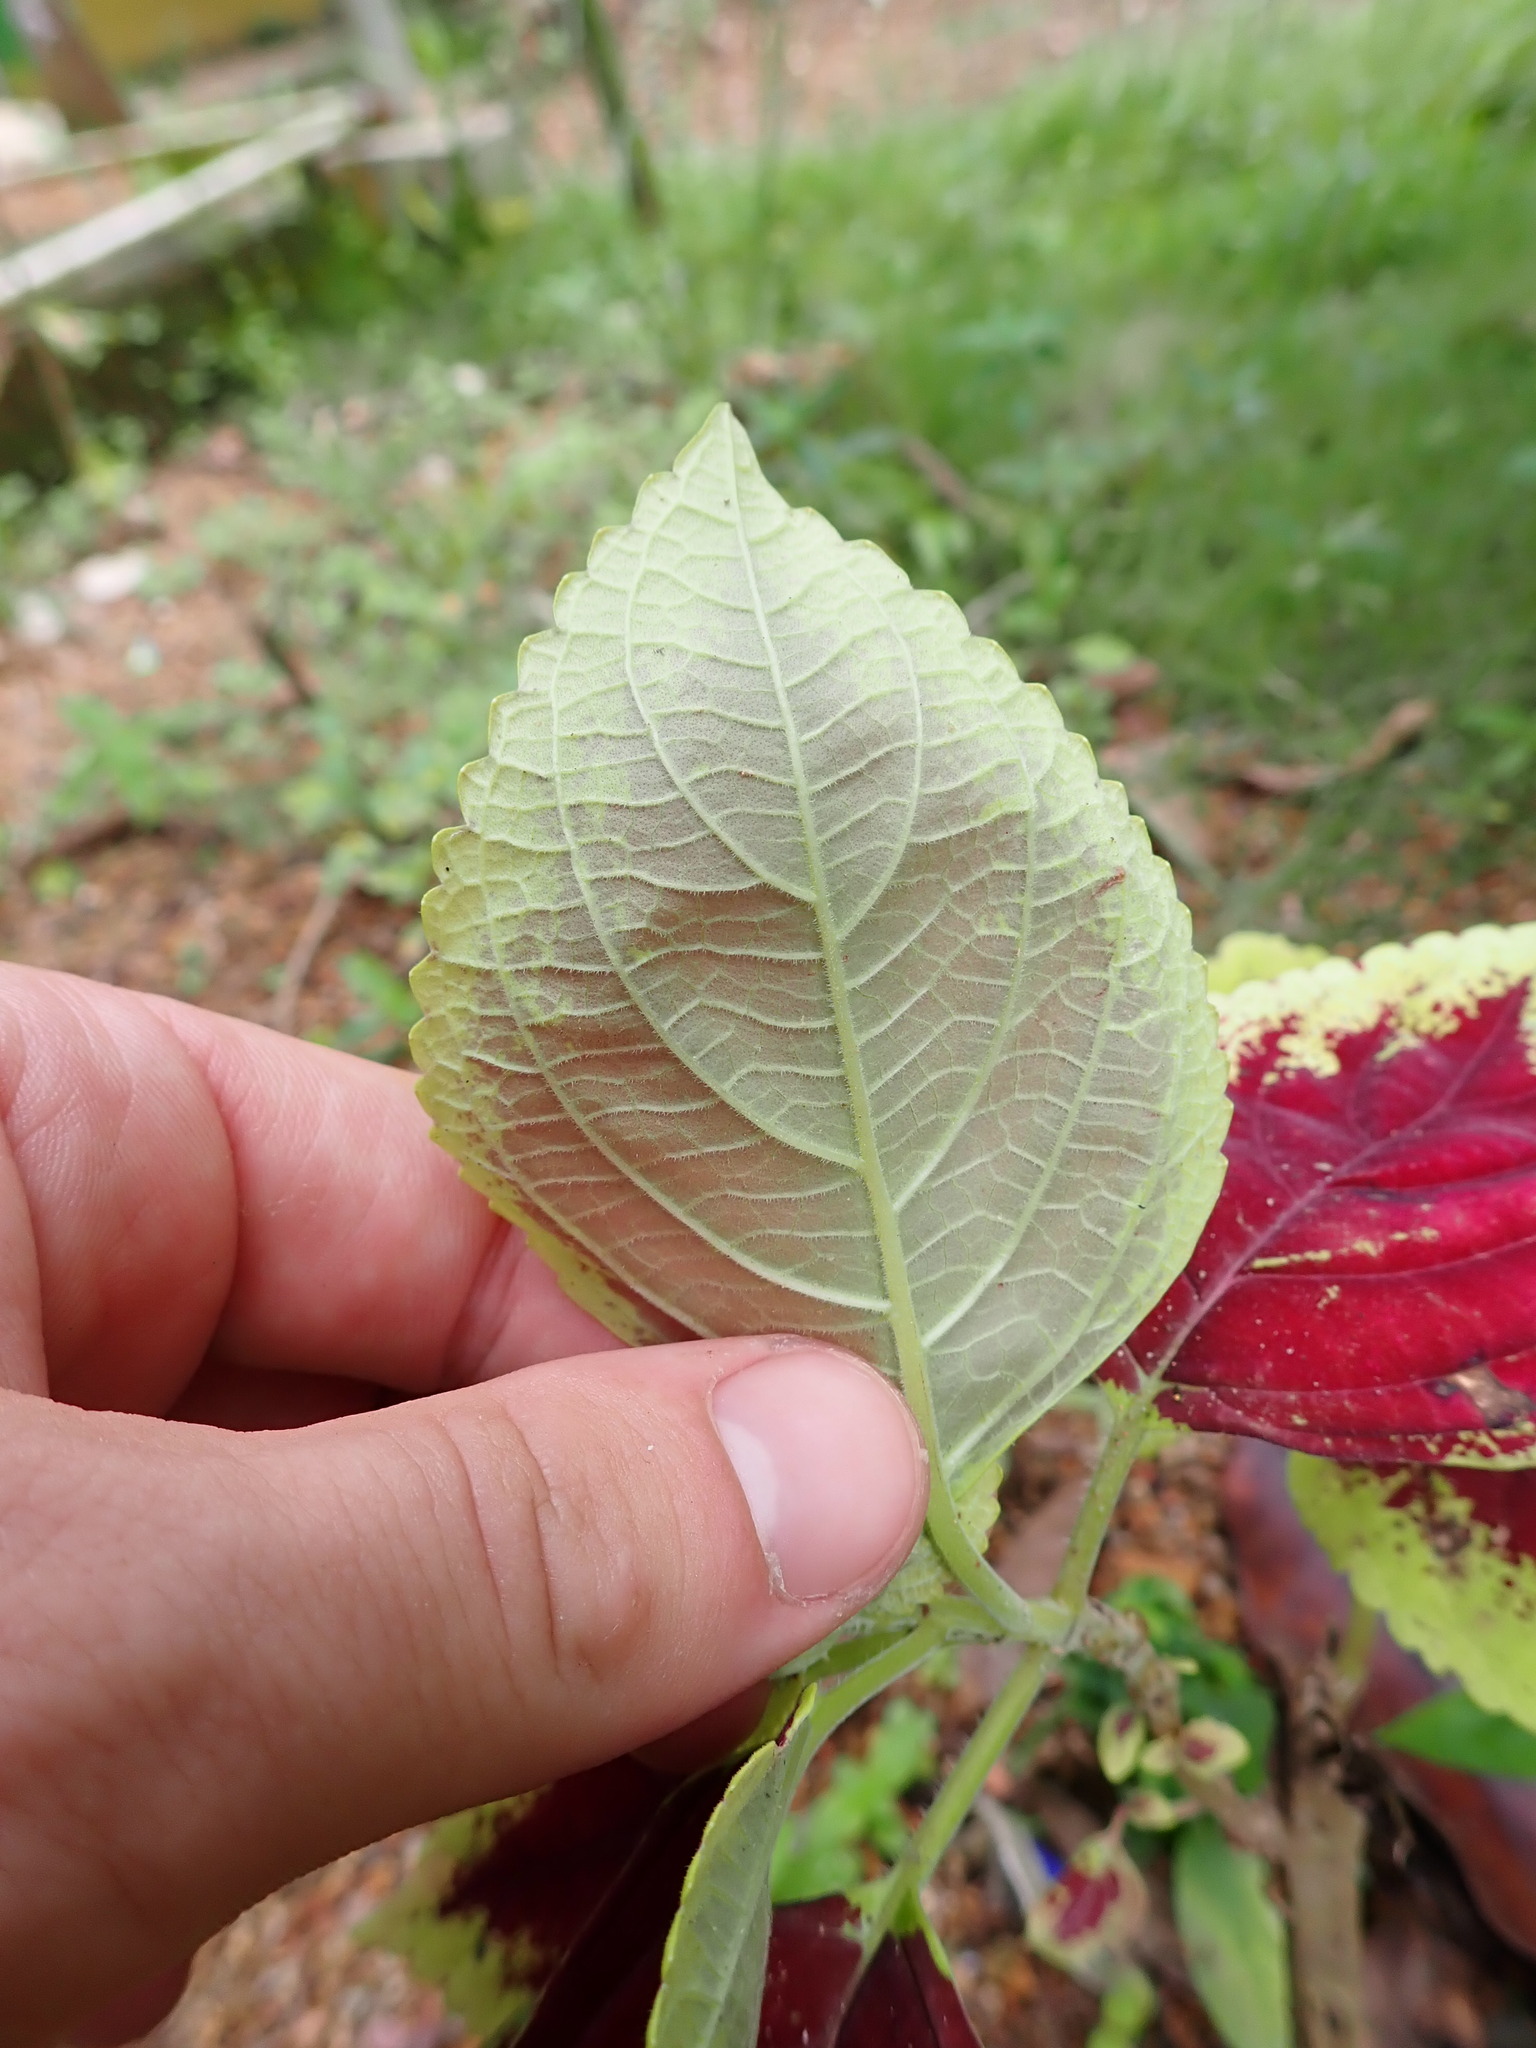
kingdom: Plantae
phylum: Tracheophyta
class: Magnoliopsida
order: Lamiales
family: Lamiaceae
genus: Coleus
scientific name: Coleus scutellarioides
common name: Coleus
